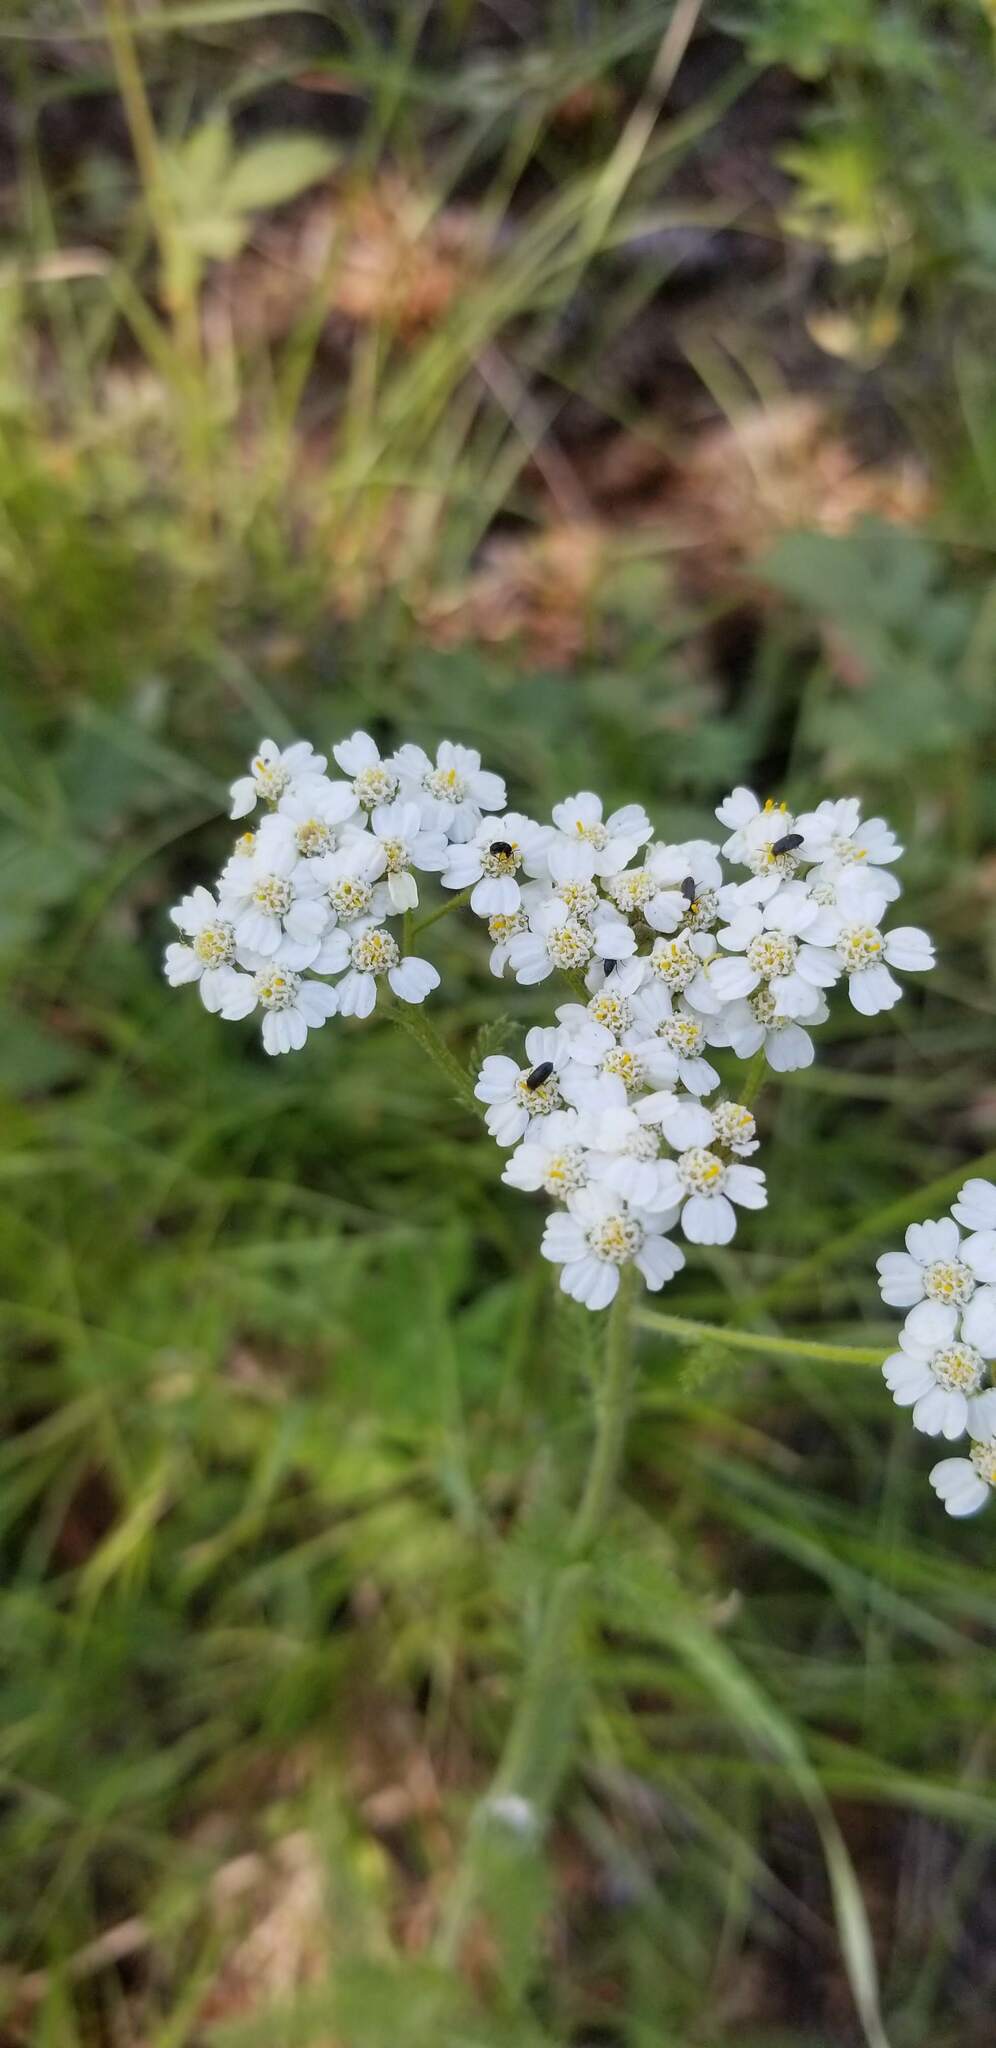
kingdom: Plantae
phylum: Tracheophyta
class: Magnoliopsida
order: Asterales
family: Asteraceae
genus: Achillea
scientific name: Achillea millefolium
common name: Yarrow
